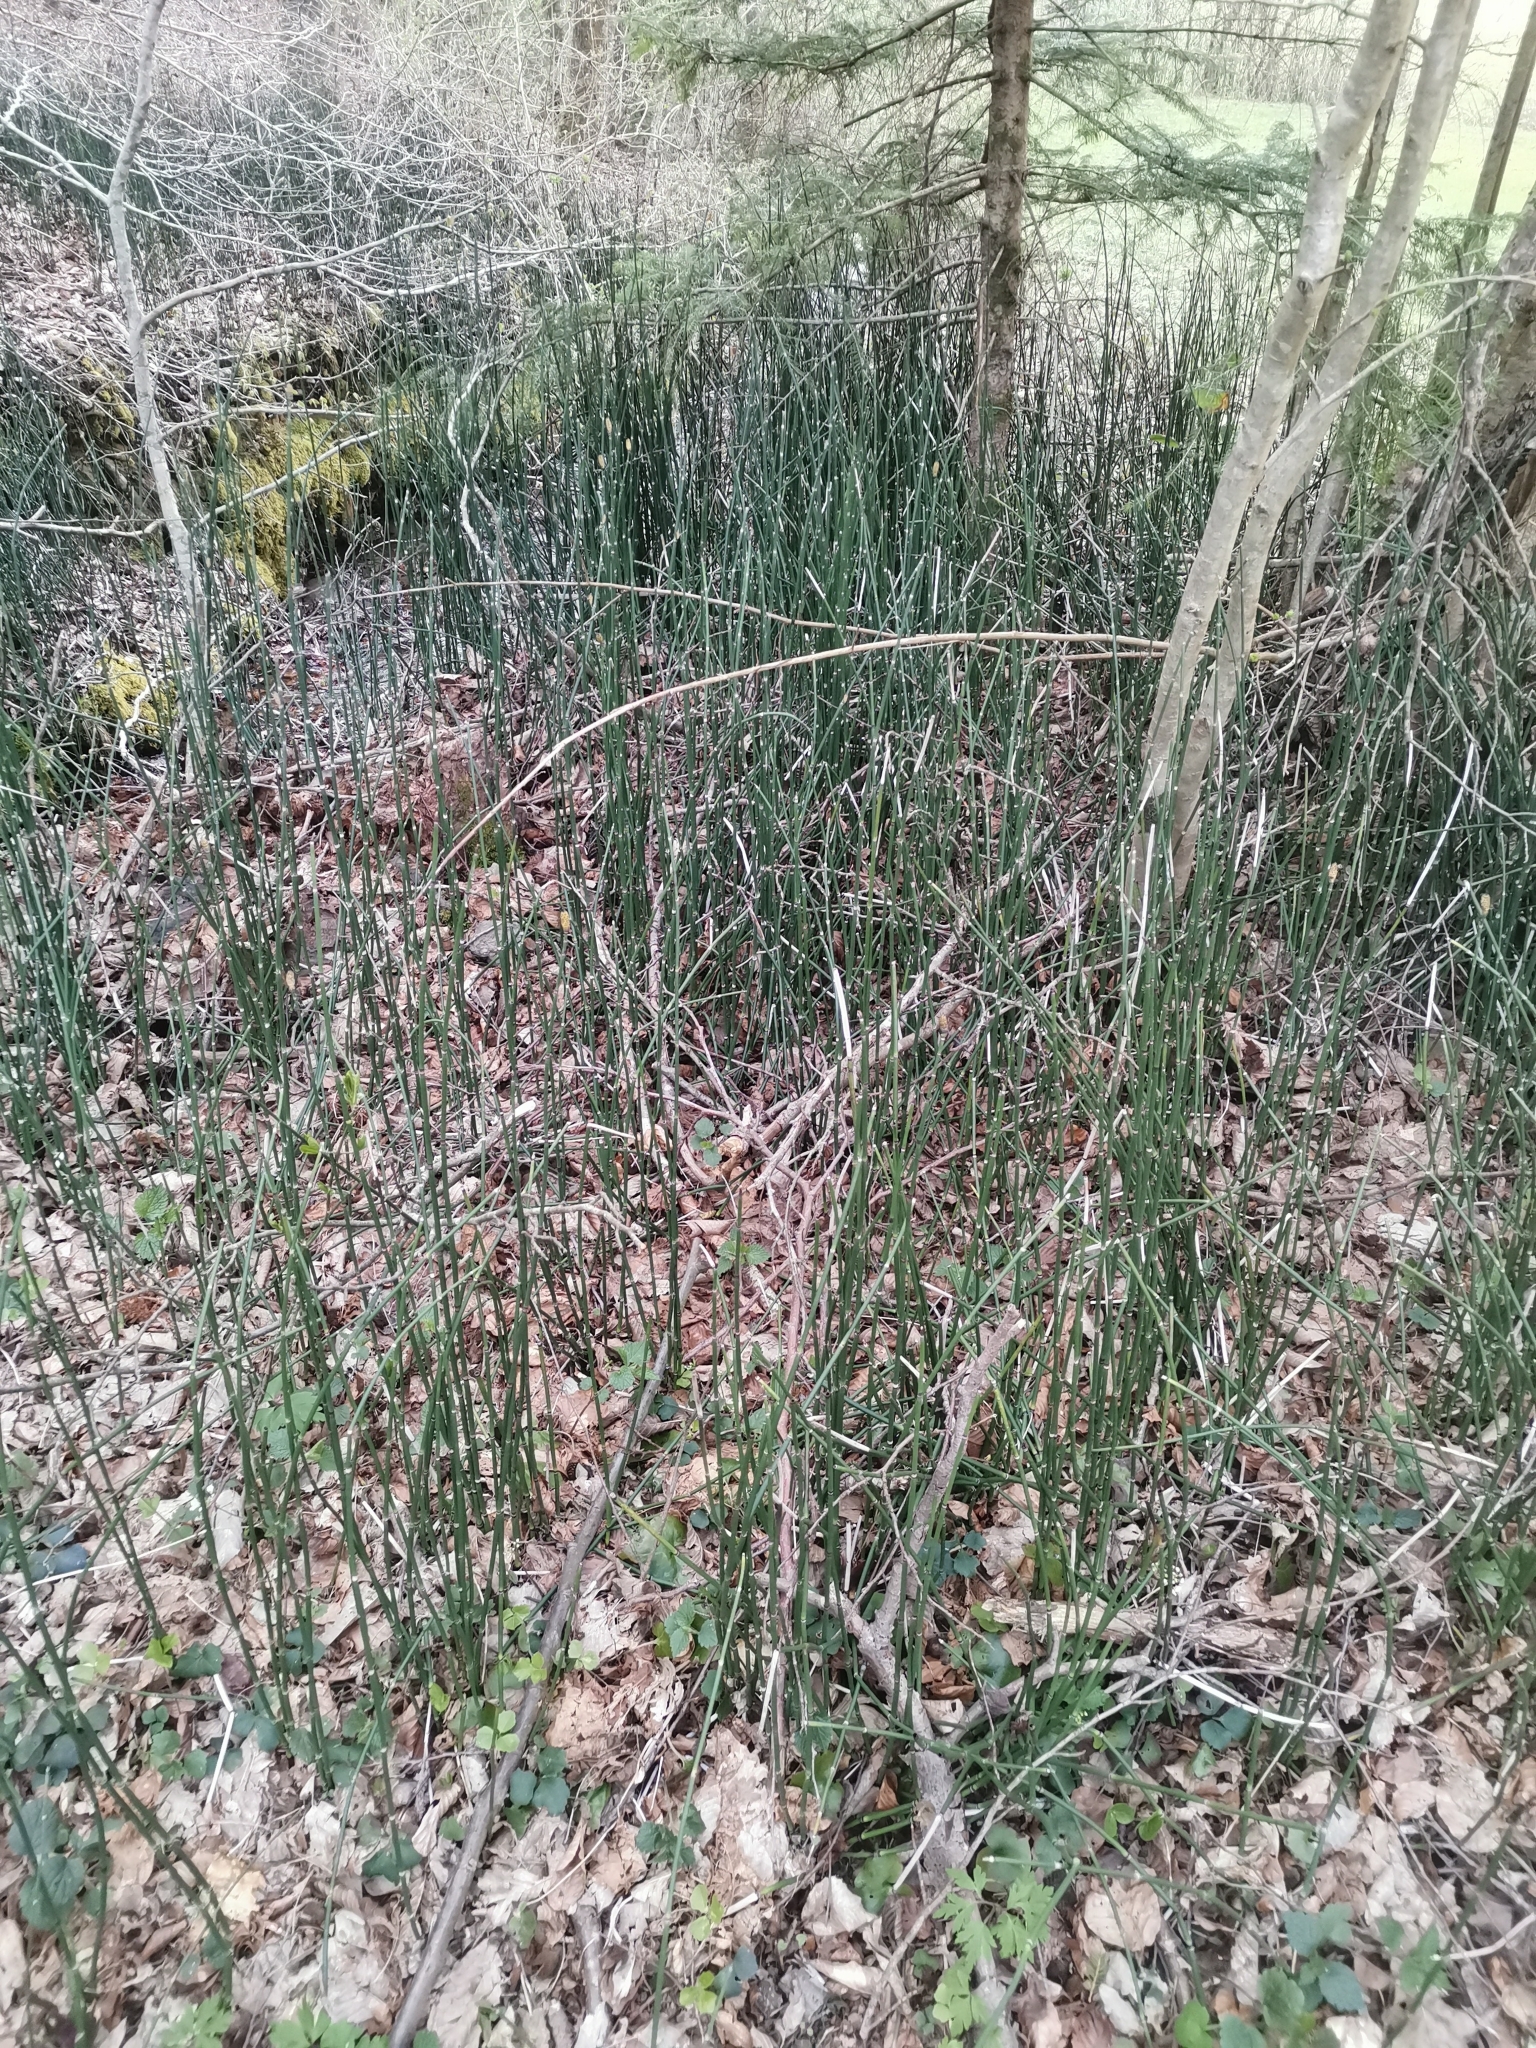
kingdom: Plantae
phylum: Tracheophyta
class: Polypodiopsida
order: Equisetales
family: Equisetaceae
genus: Equisetum
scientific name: Equisetum hyemale
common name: Rough horsetail
